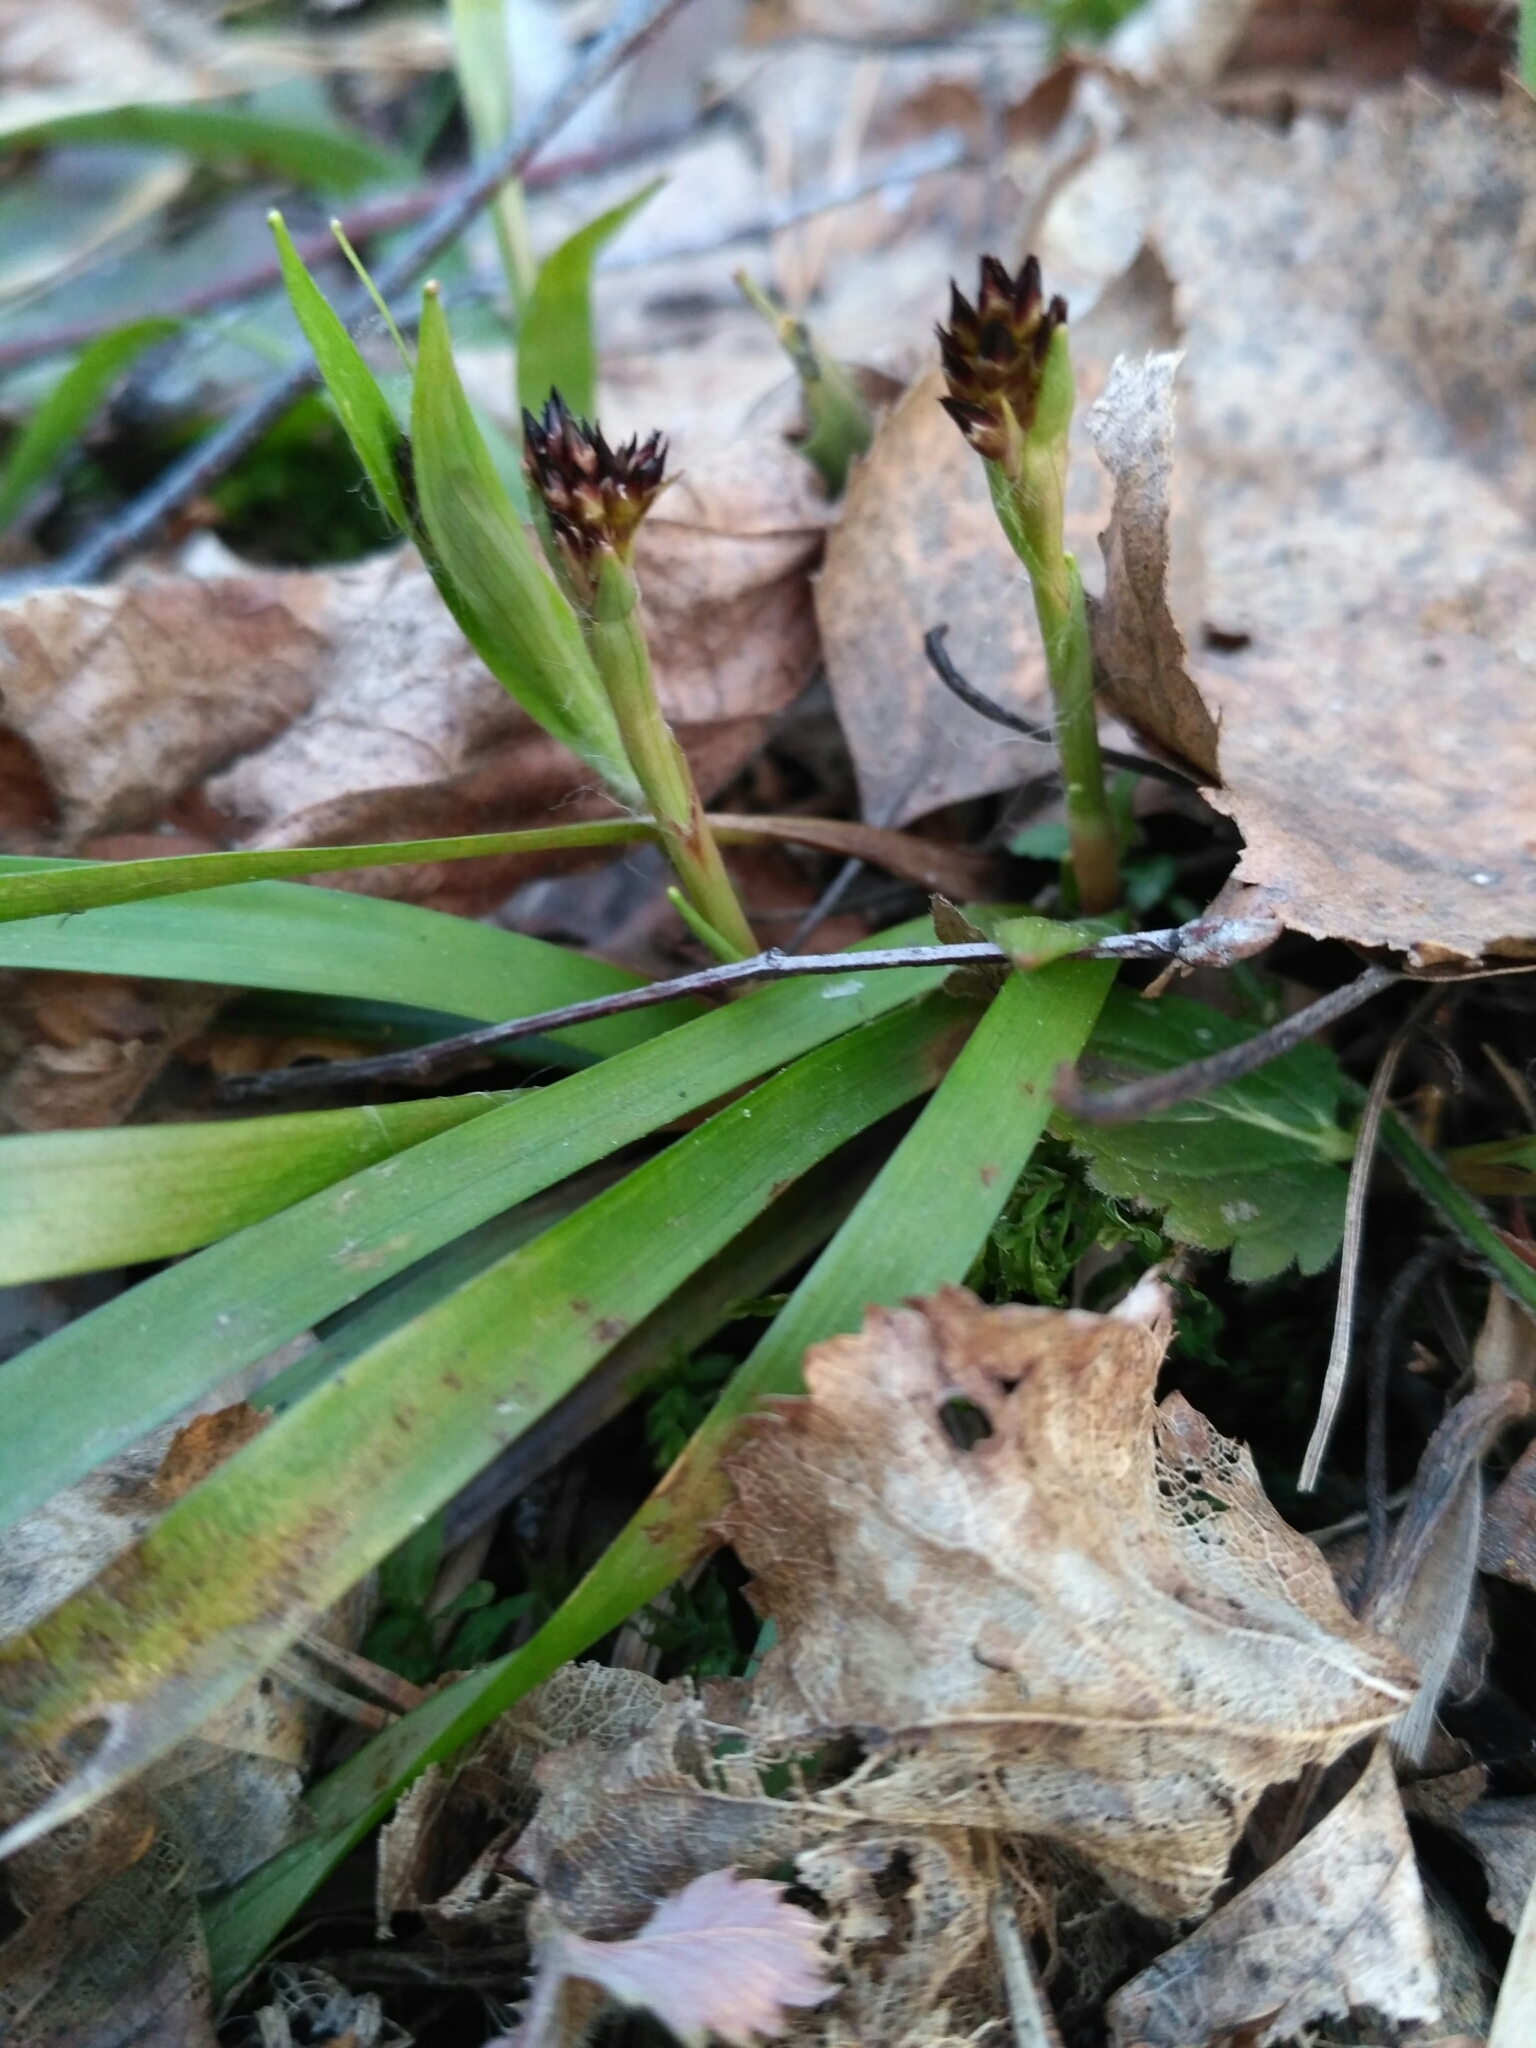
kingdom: Plantae
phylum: Tracheophyta
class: Liliopsida
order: Poales
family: Juncaceae
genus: Luzula
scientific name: Luzula pilosa
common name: Hairy wood-rush
